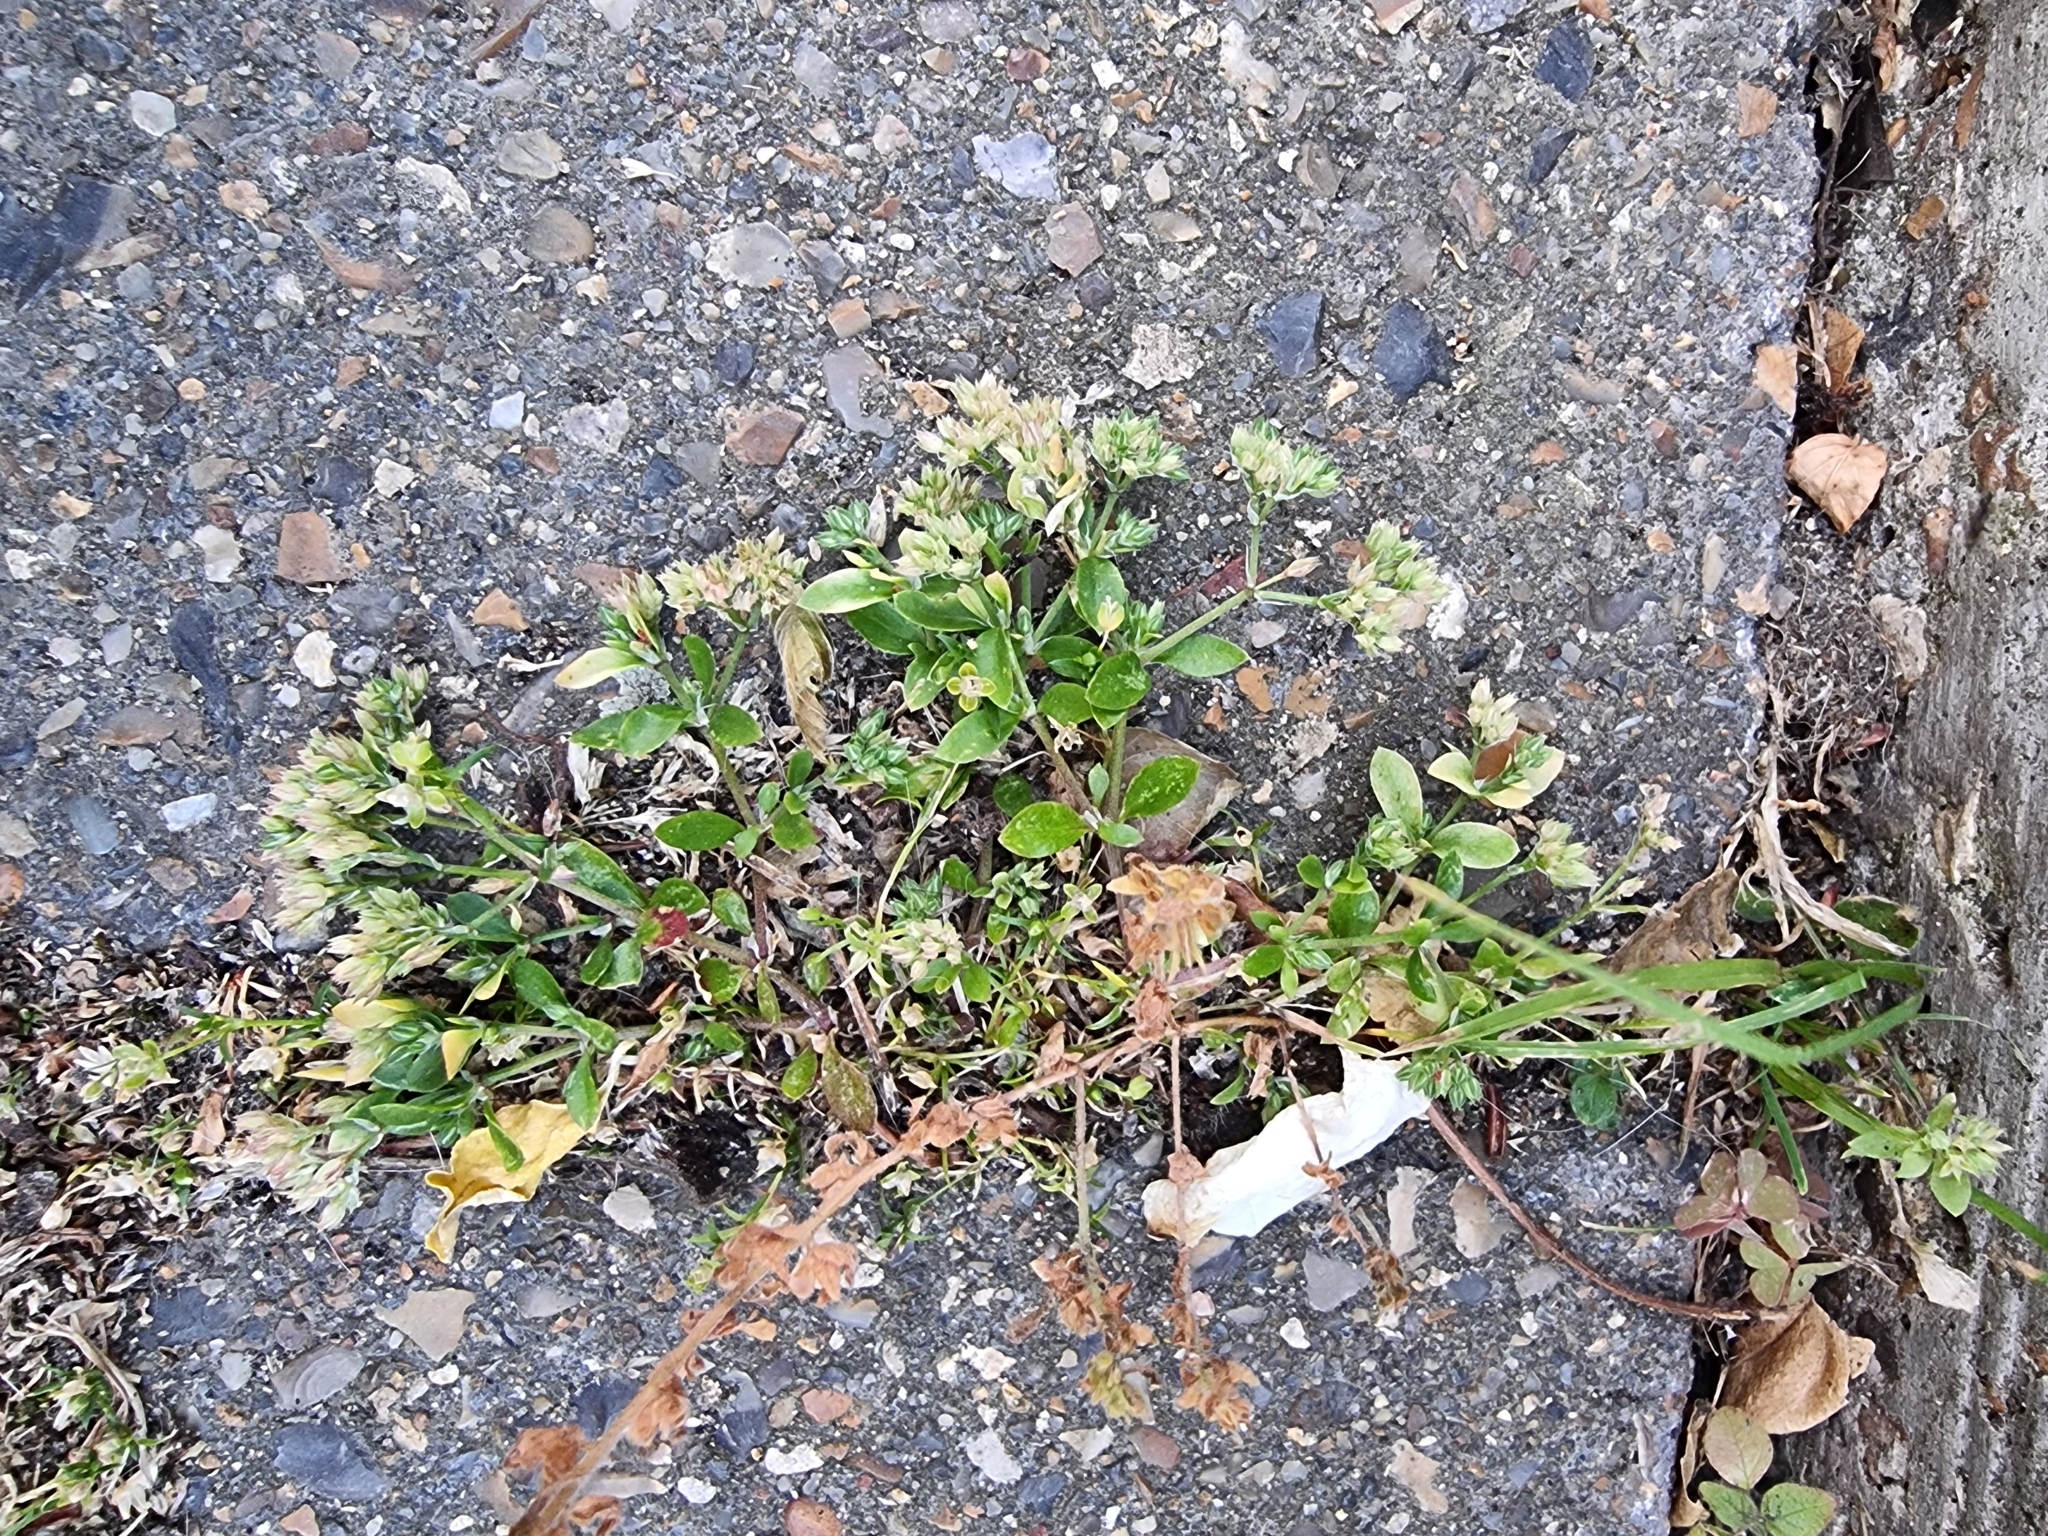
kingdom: Plantae
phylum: Tracheophyta
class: Magnoliopsida
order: Caryophyllales
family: Caryophyllaceae
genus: Polycarpon
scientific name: Polycarpon tetraphyllum
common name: Four-leaved all-seed
